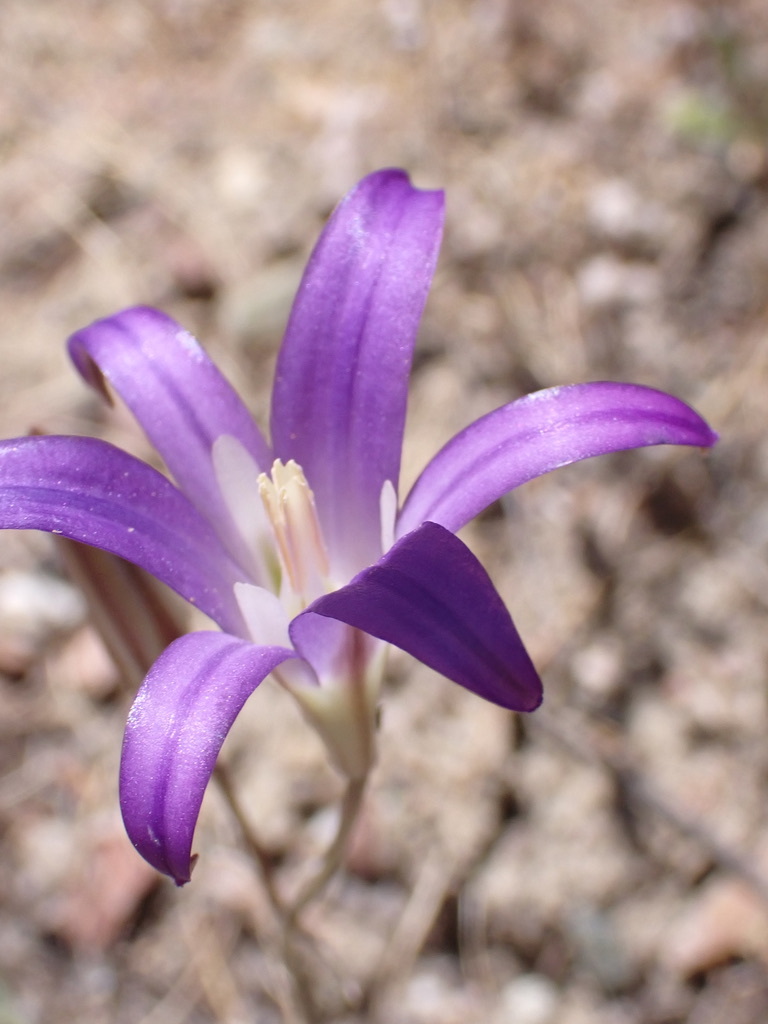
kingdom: Plantae
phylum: Tracheophyta
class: Liliopsida
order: Asparagales
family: Asparagaceae
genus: Brodiaea
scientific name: Brodiaea elegans
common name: Elegant cluster-lily
